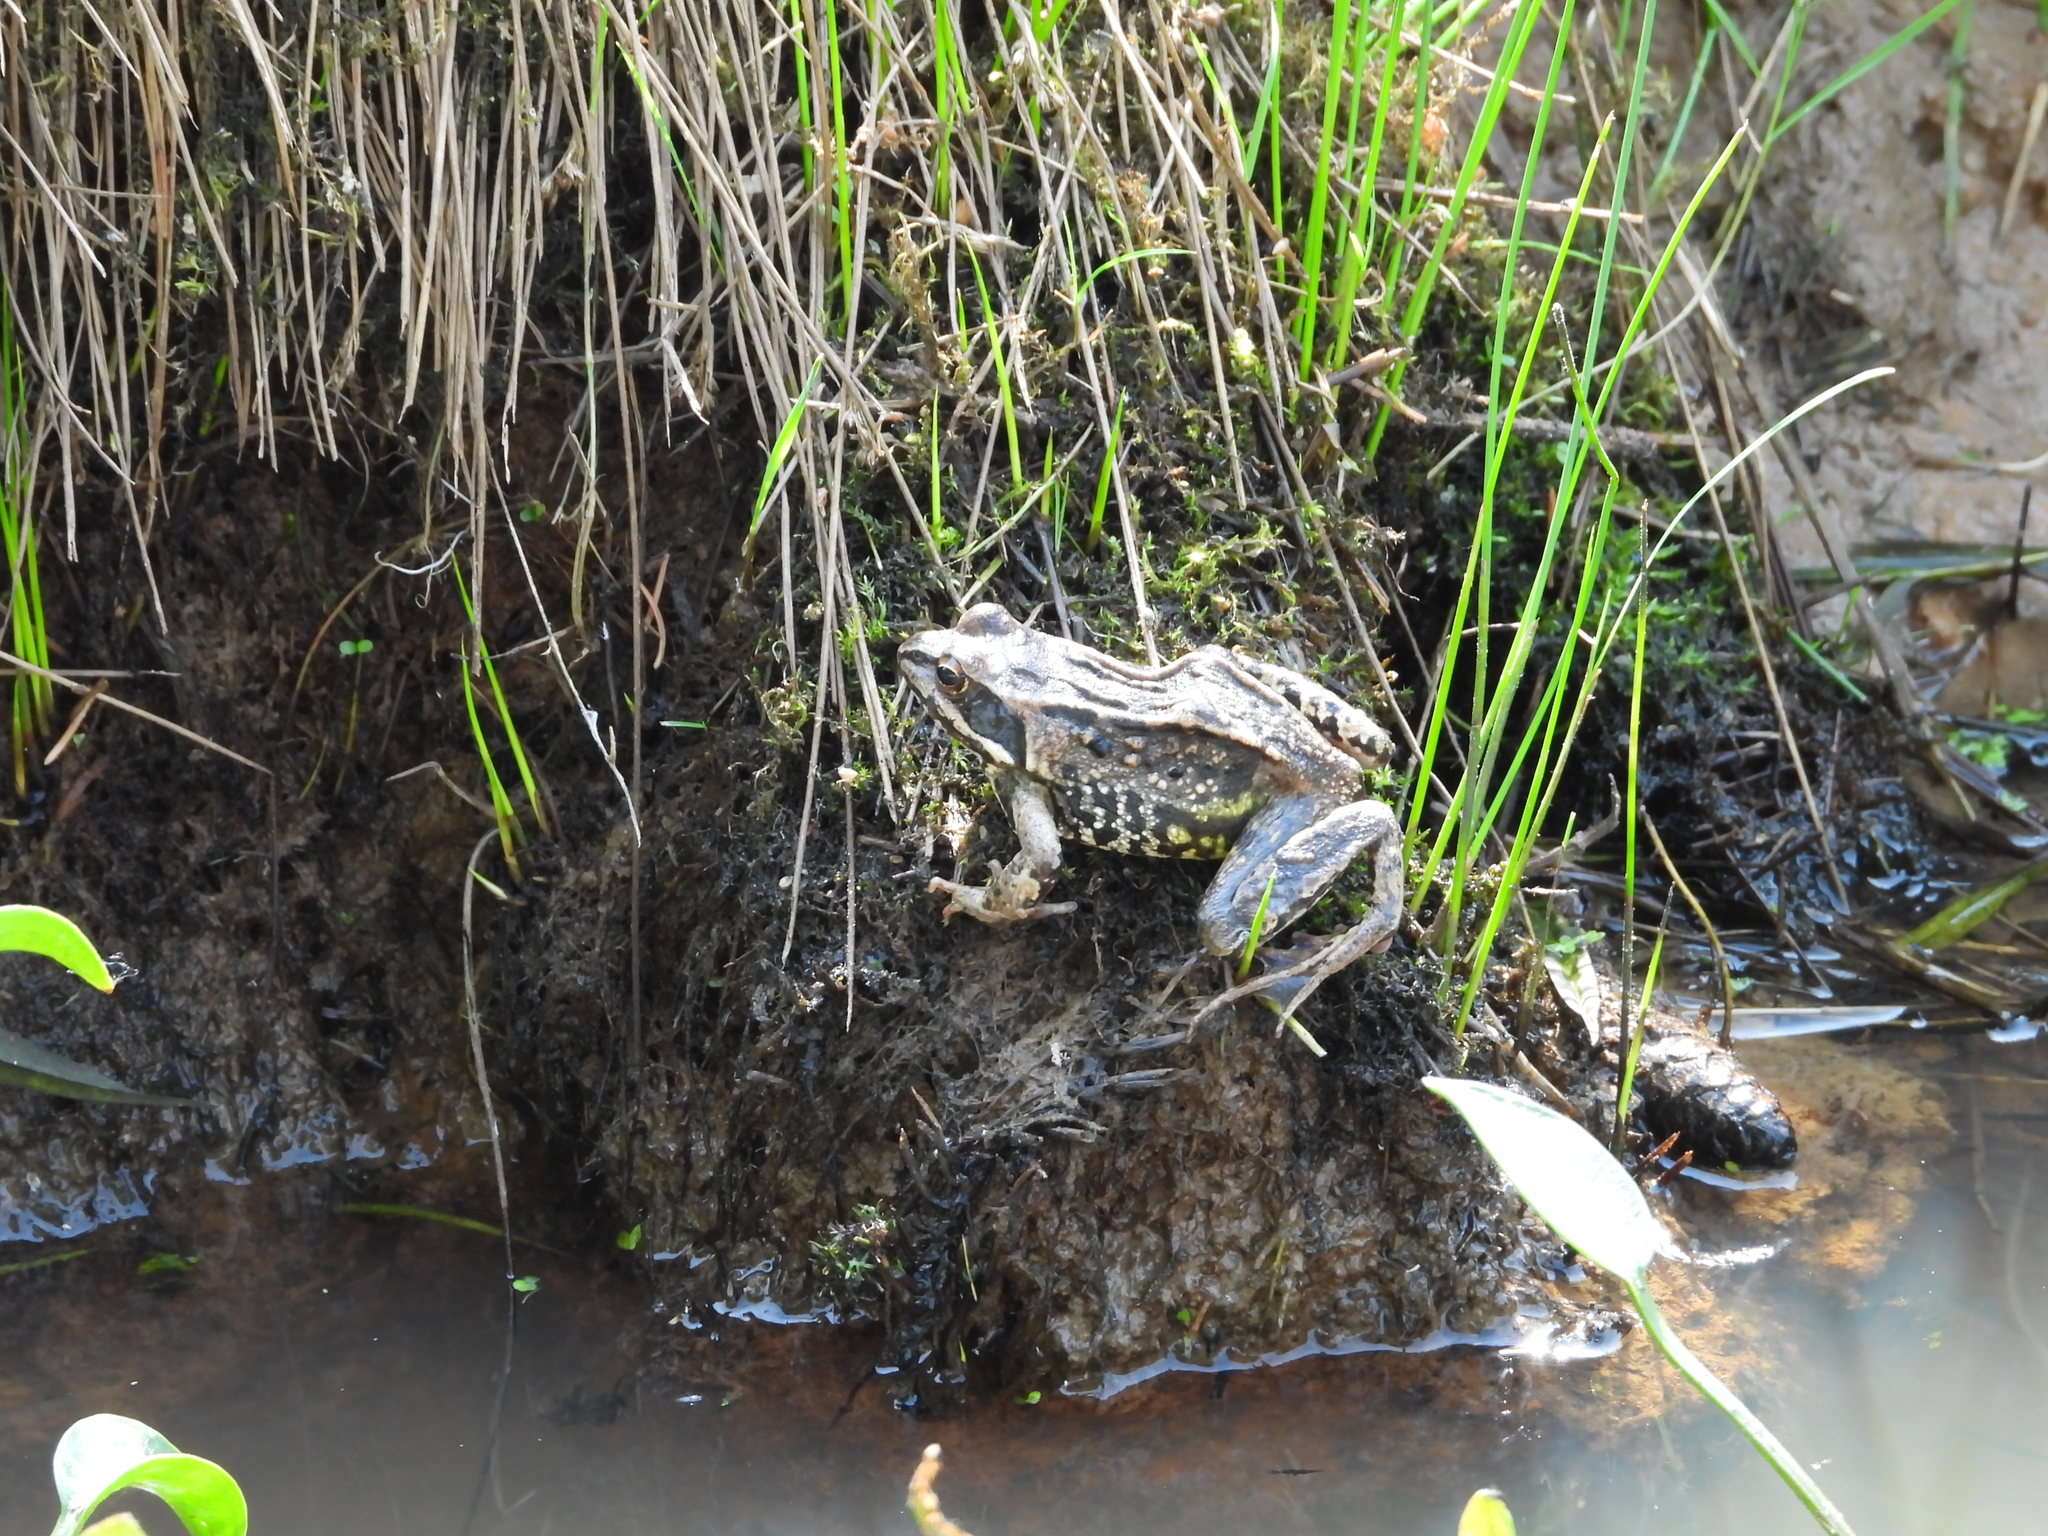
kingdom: Animalia
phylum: Chordata
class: Amphibia
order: Anura
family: Ranidae
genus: Rana
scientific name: Rana arvalis
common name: Moor frog
